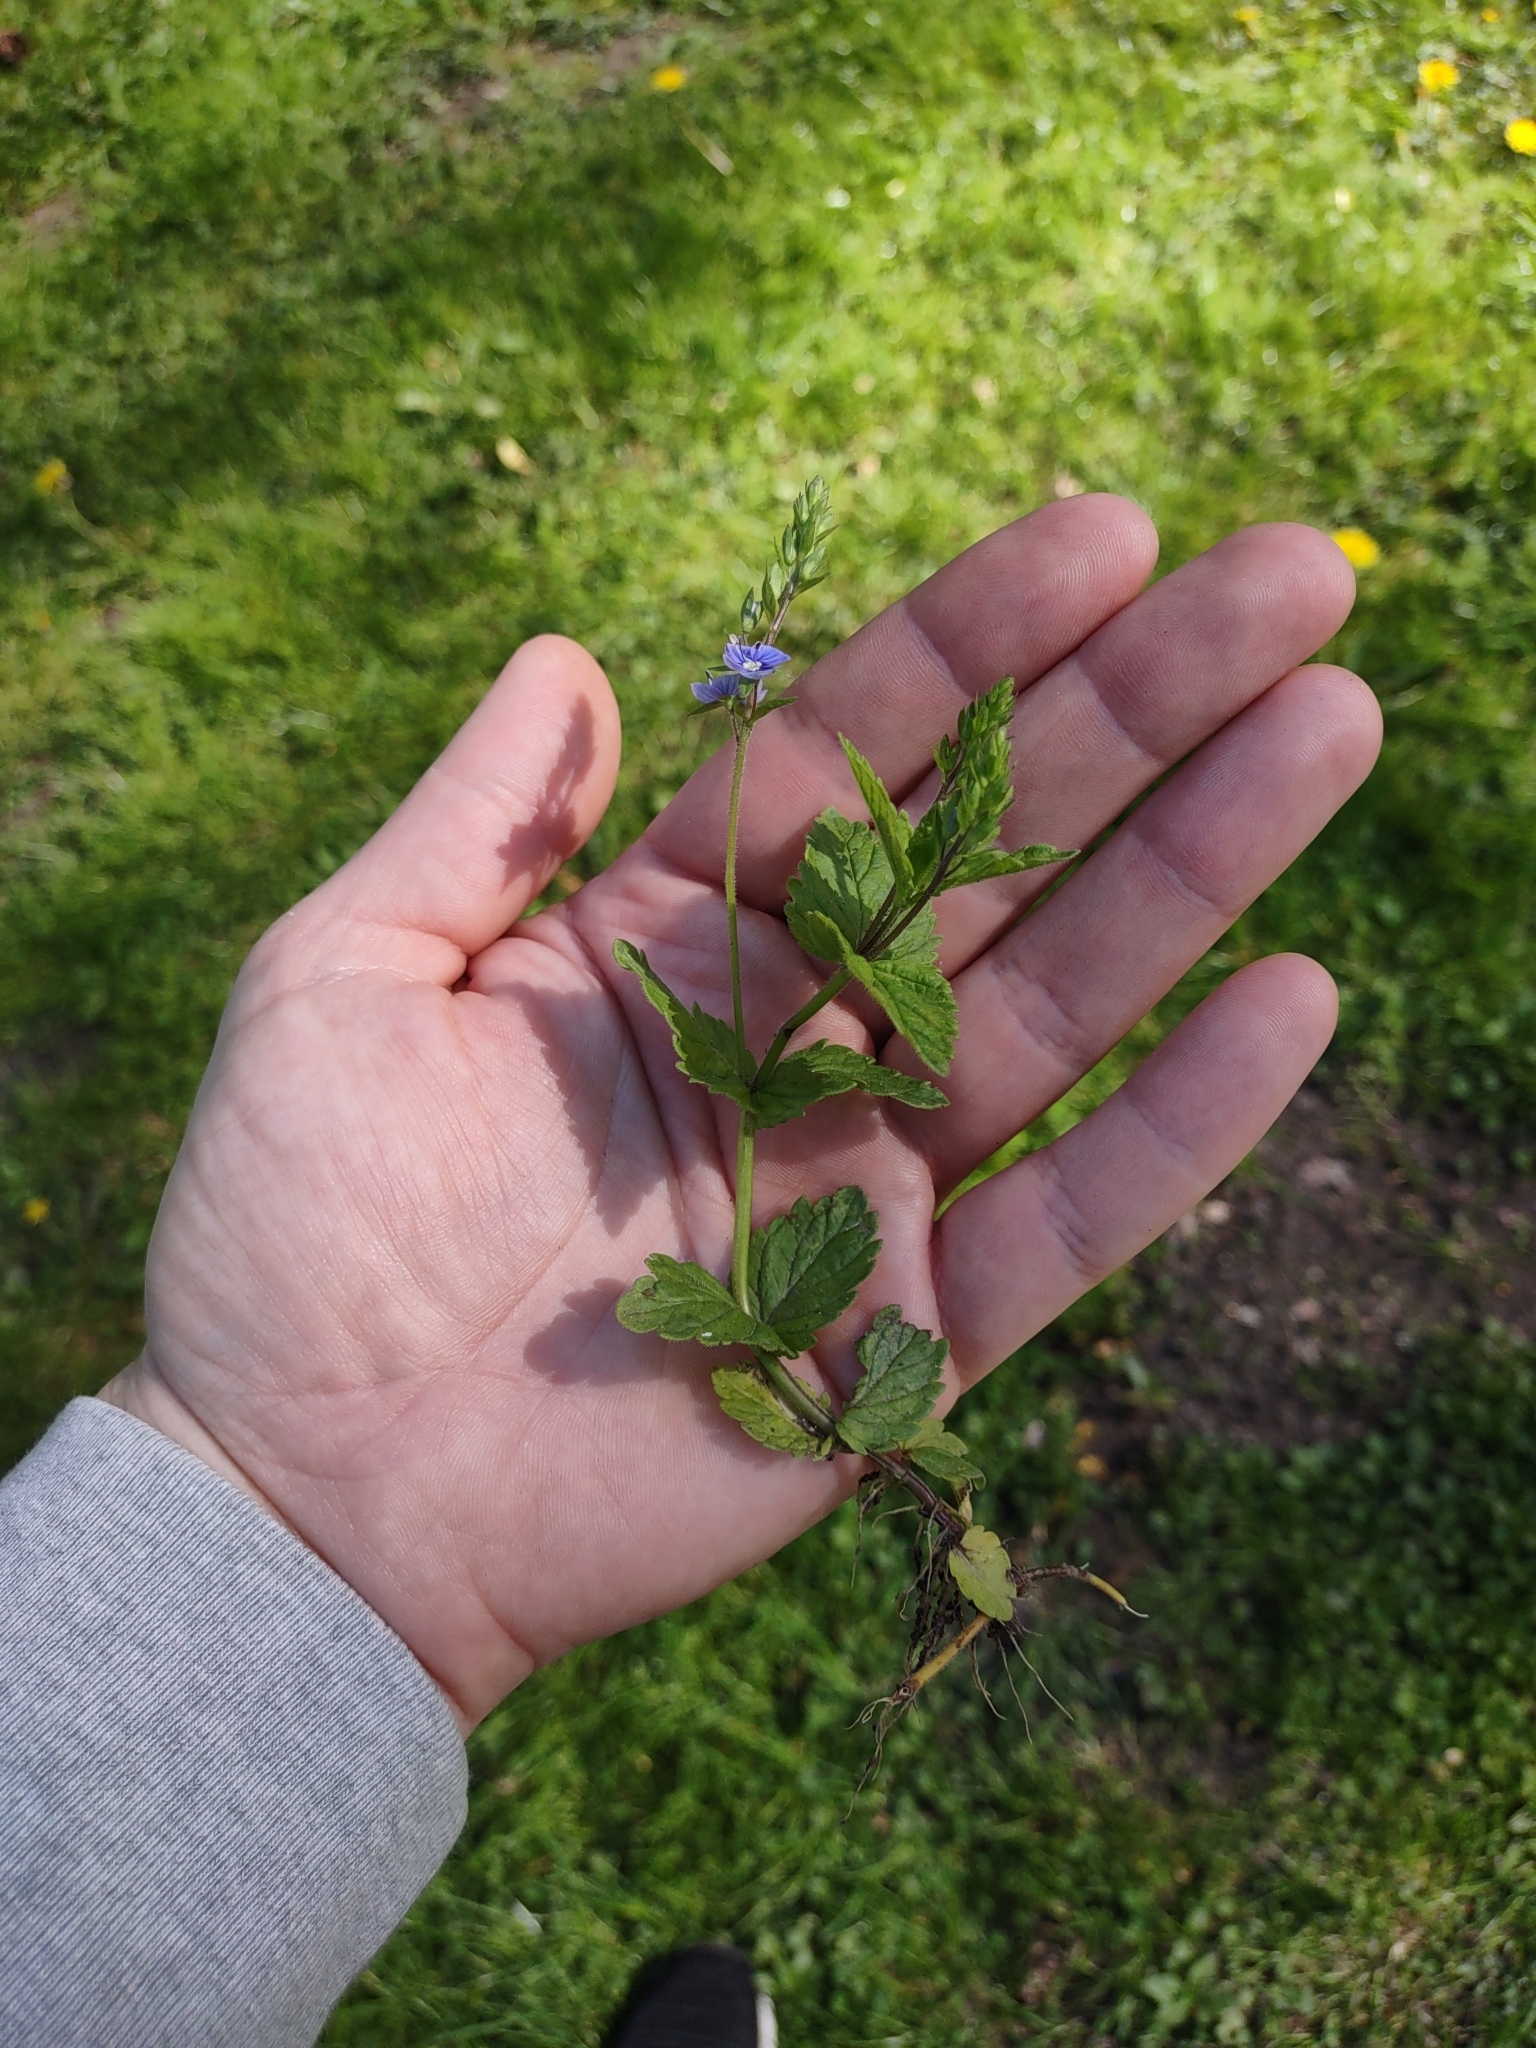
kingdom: Plantae
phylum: Tracheophyta
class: Magnoliopsida
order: Lamiales
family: Plantaginaceae
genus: Veronica
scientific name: Veronica chamaedrys
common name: Germander speedwell
